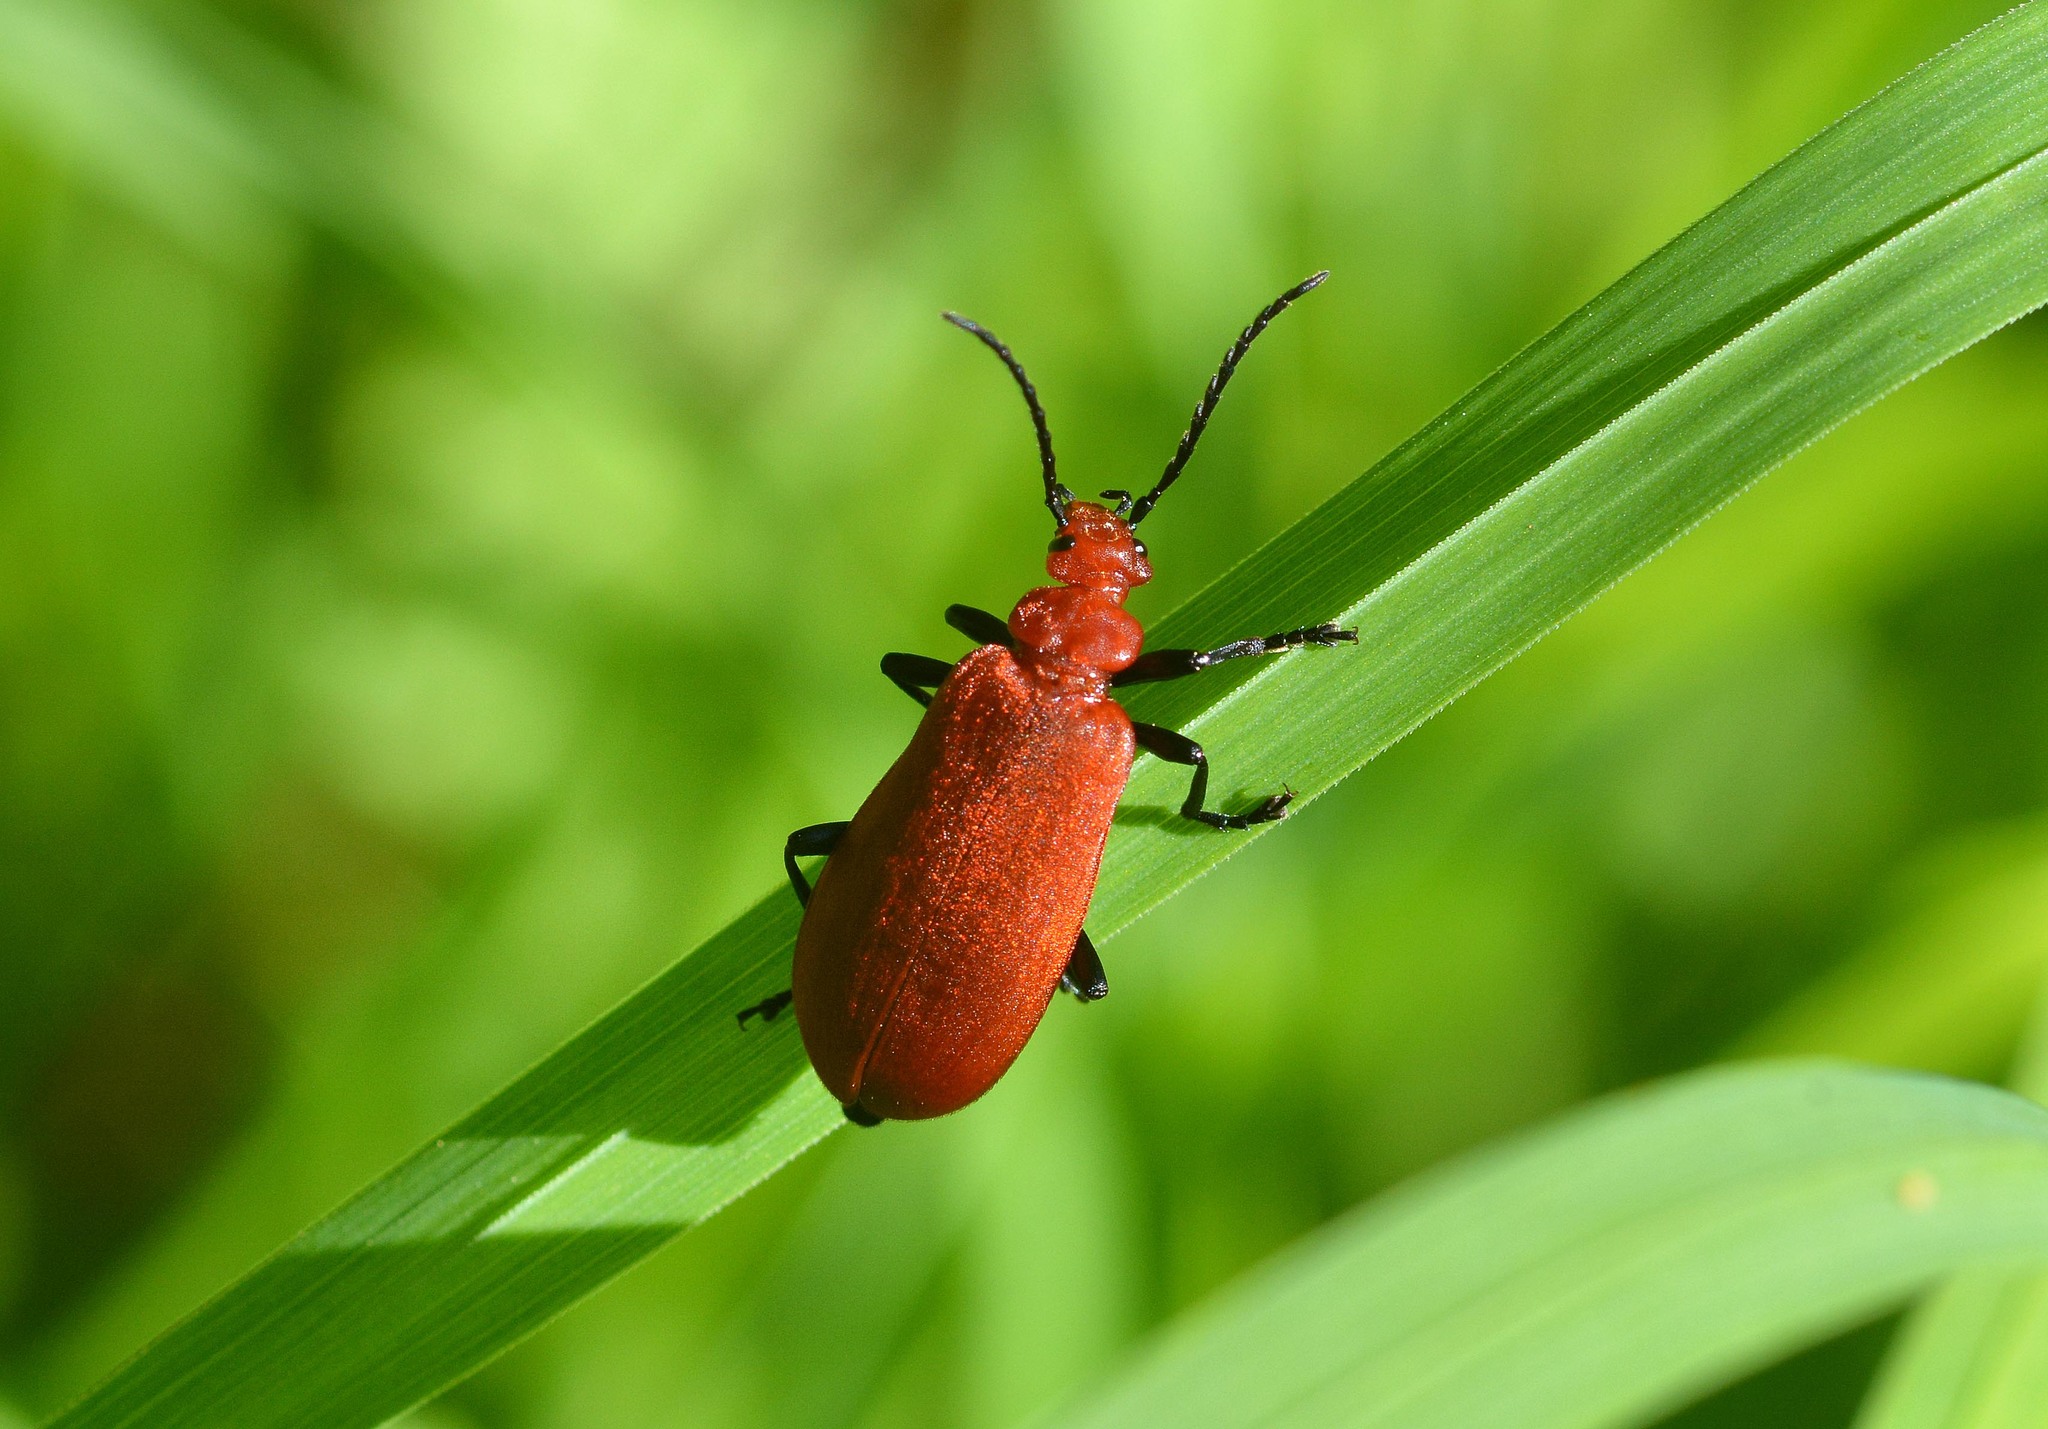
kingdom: Animalia
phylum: Arthropoda
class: Insecta
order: Coleoptera
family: Pyrochroidae
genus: Pyrochroa
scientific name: Pyrochroa serraticornis
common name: Red-headed cardinal beetle
